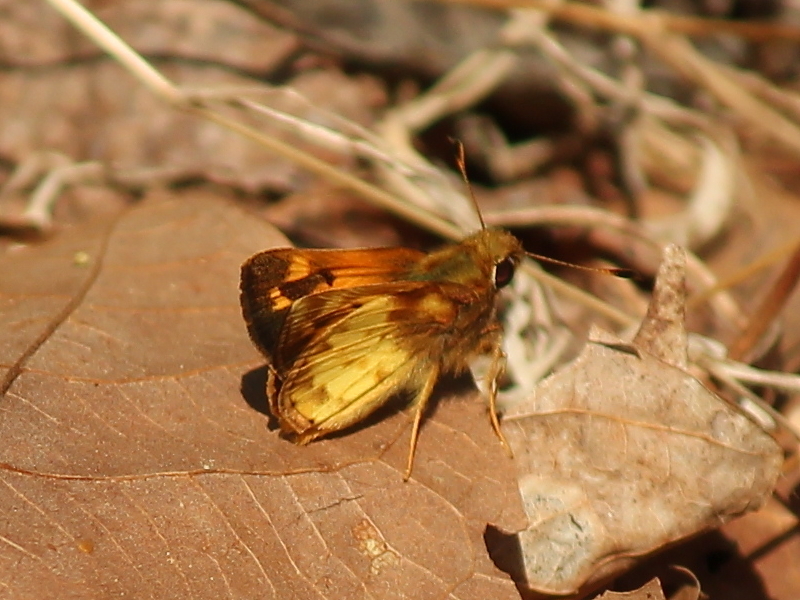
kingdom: Animalia
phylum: Arthropoda
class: Insecta
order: Lepidoptera
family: Hesperiidae
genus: Lon
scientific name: Lon zabulon
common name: Zabulon skipper
